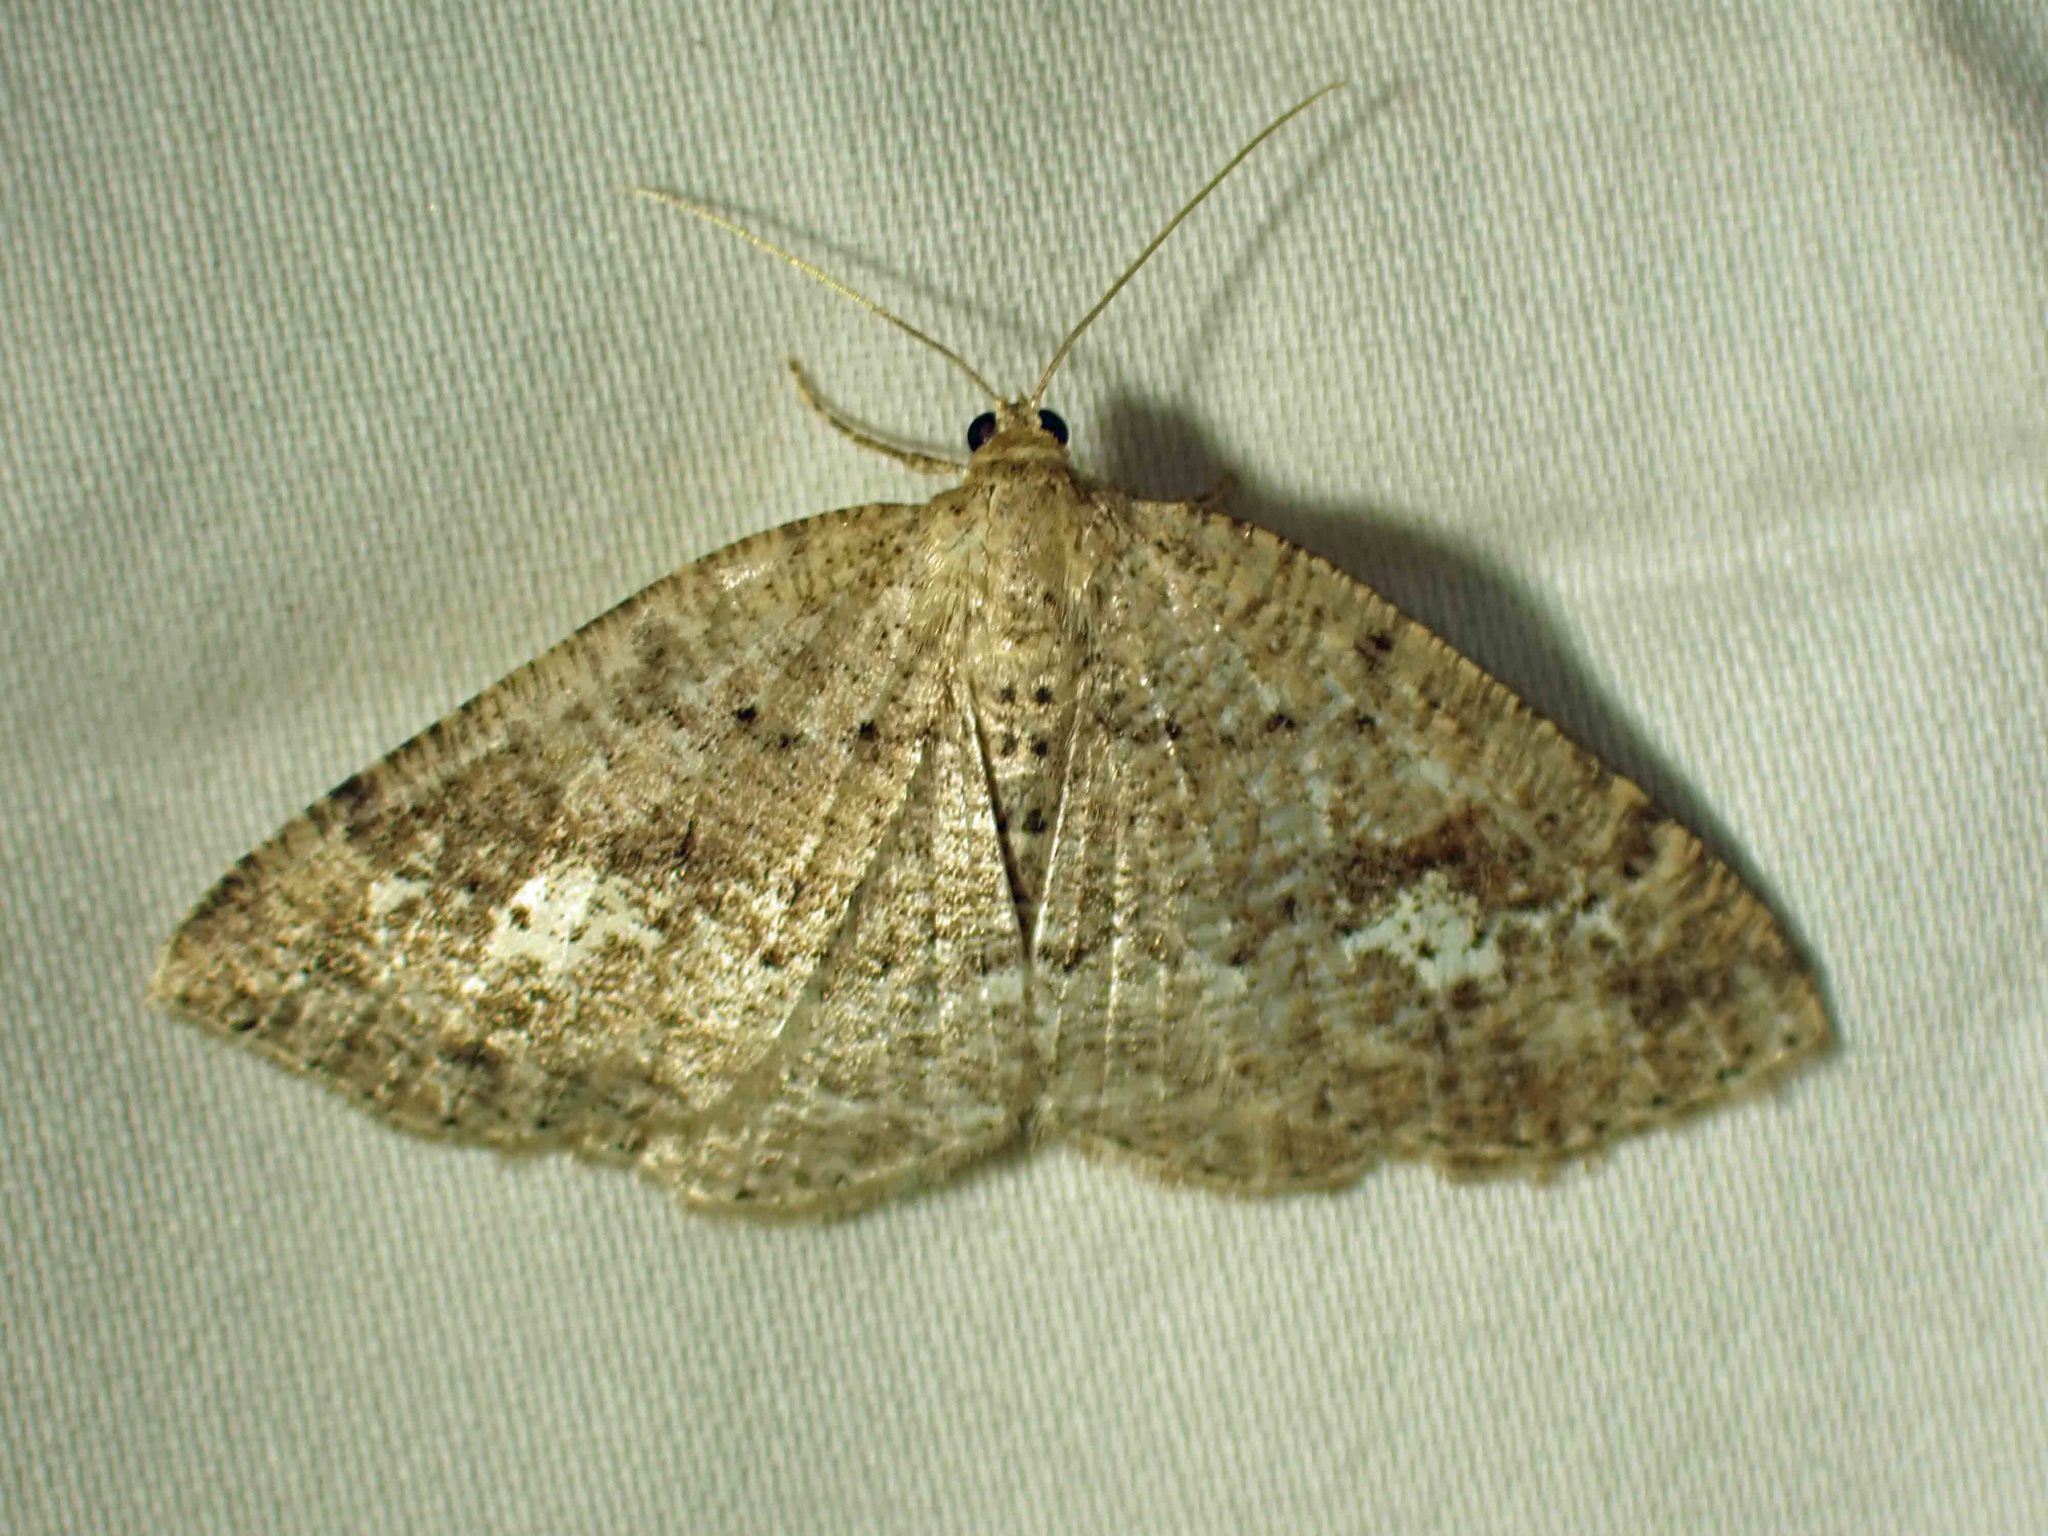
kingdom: Animalia
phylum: Arthropoda
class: Insecta
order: Lepidoptera
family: Geometridae
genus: Homochlodes
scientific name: Homochlodes fritillaria
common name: Pale homochlodes
